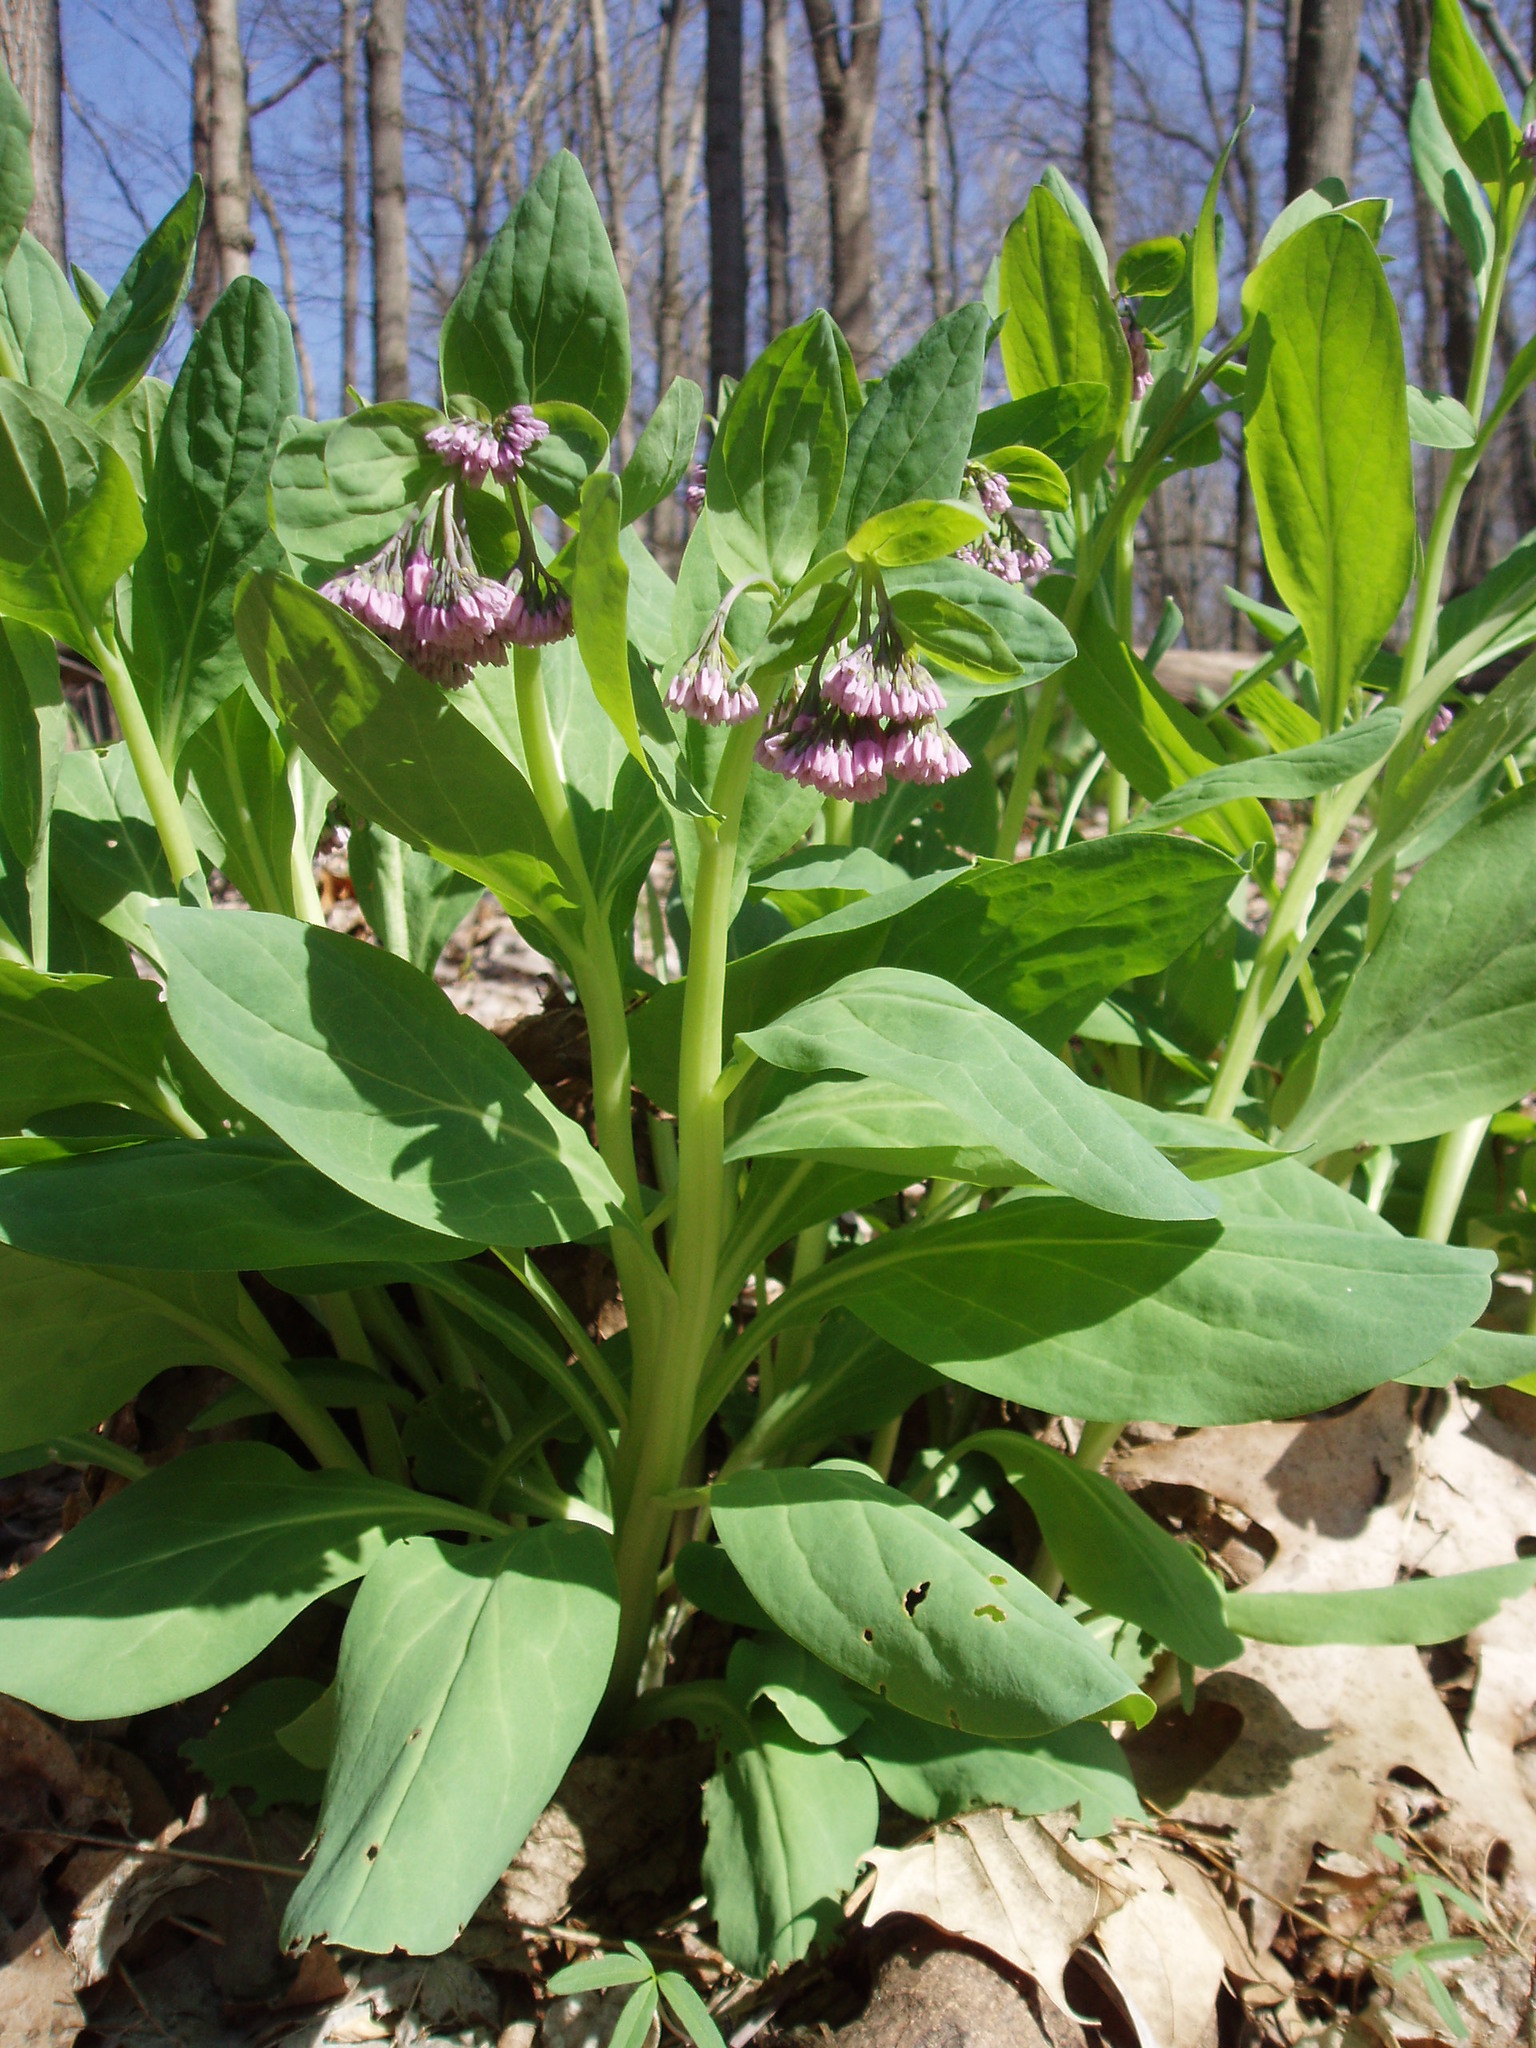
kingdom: Plantae
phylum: Tracheophyta
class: Magnoliopsida
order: Boraginales
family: Boraginaceae
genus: Mertensia
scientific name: Mertensia virginica
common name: Virginia bluebells
